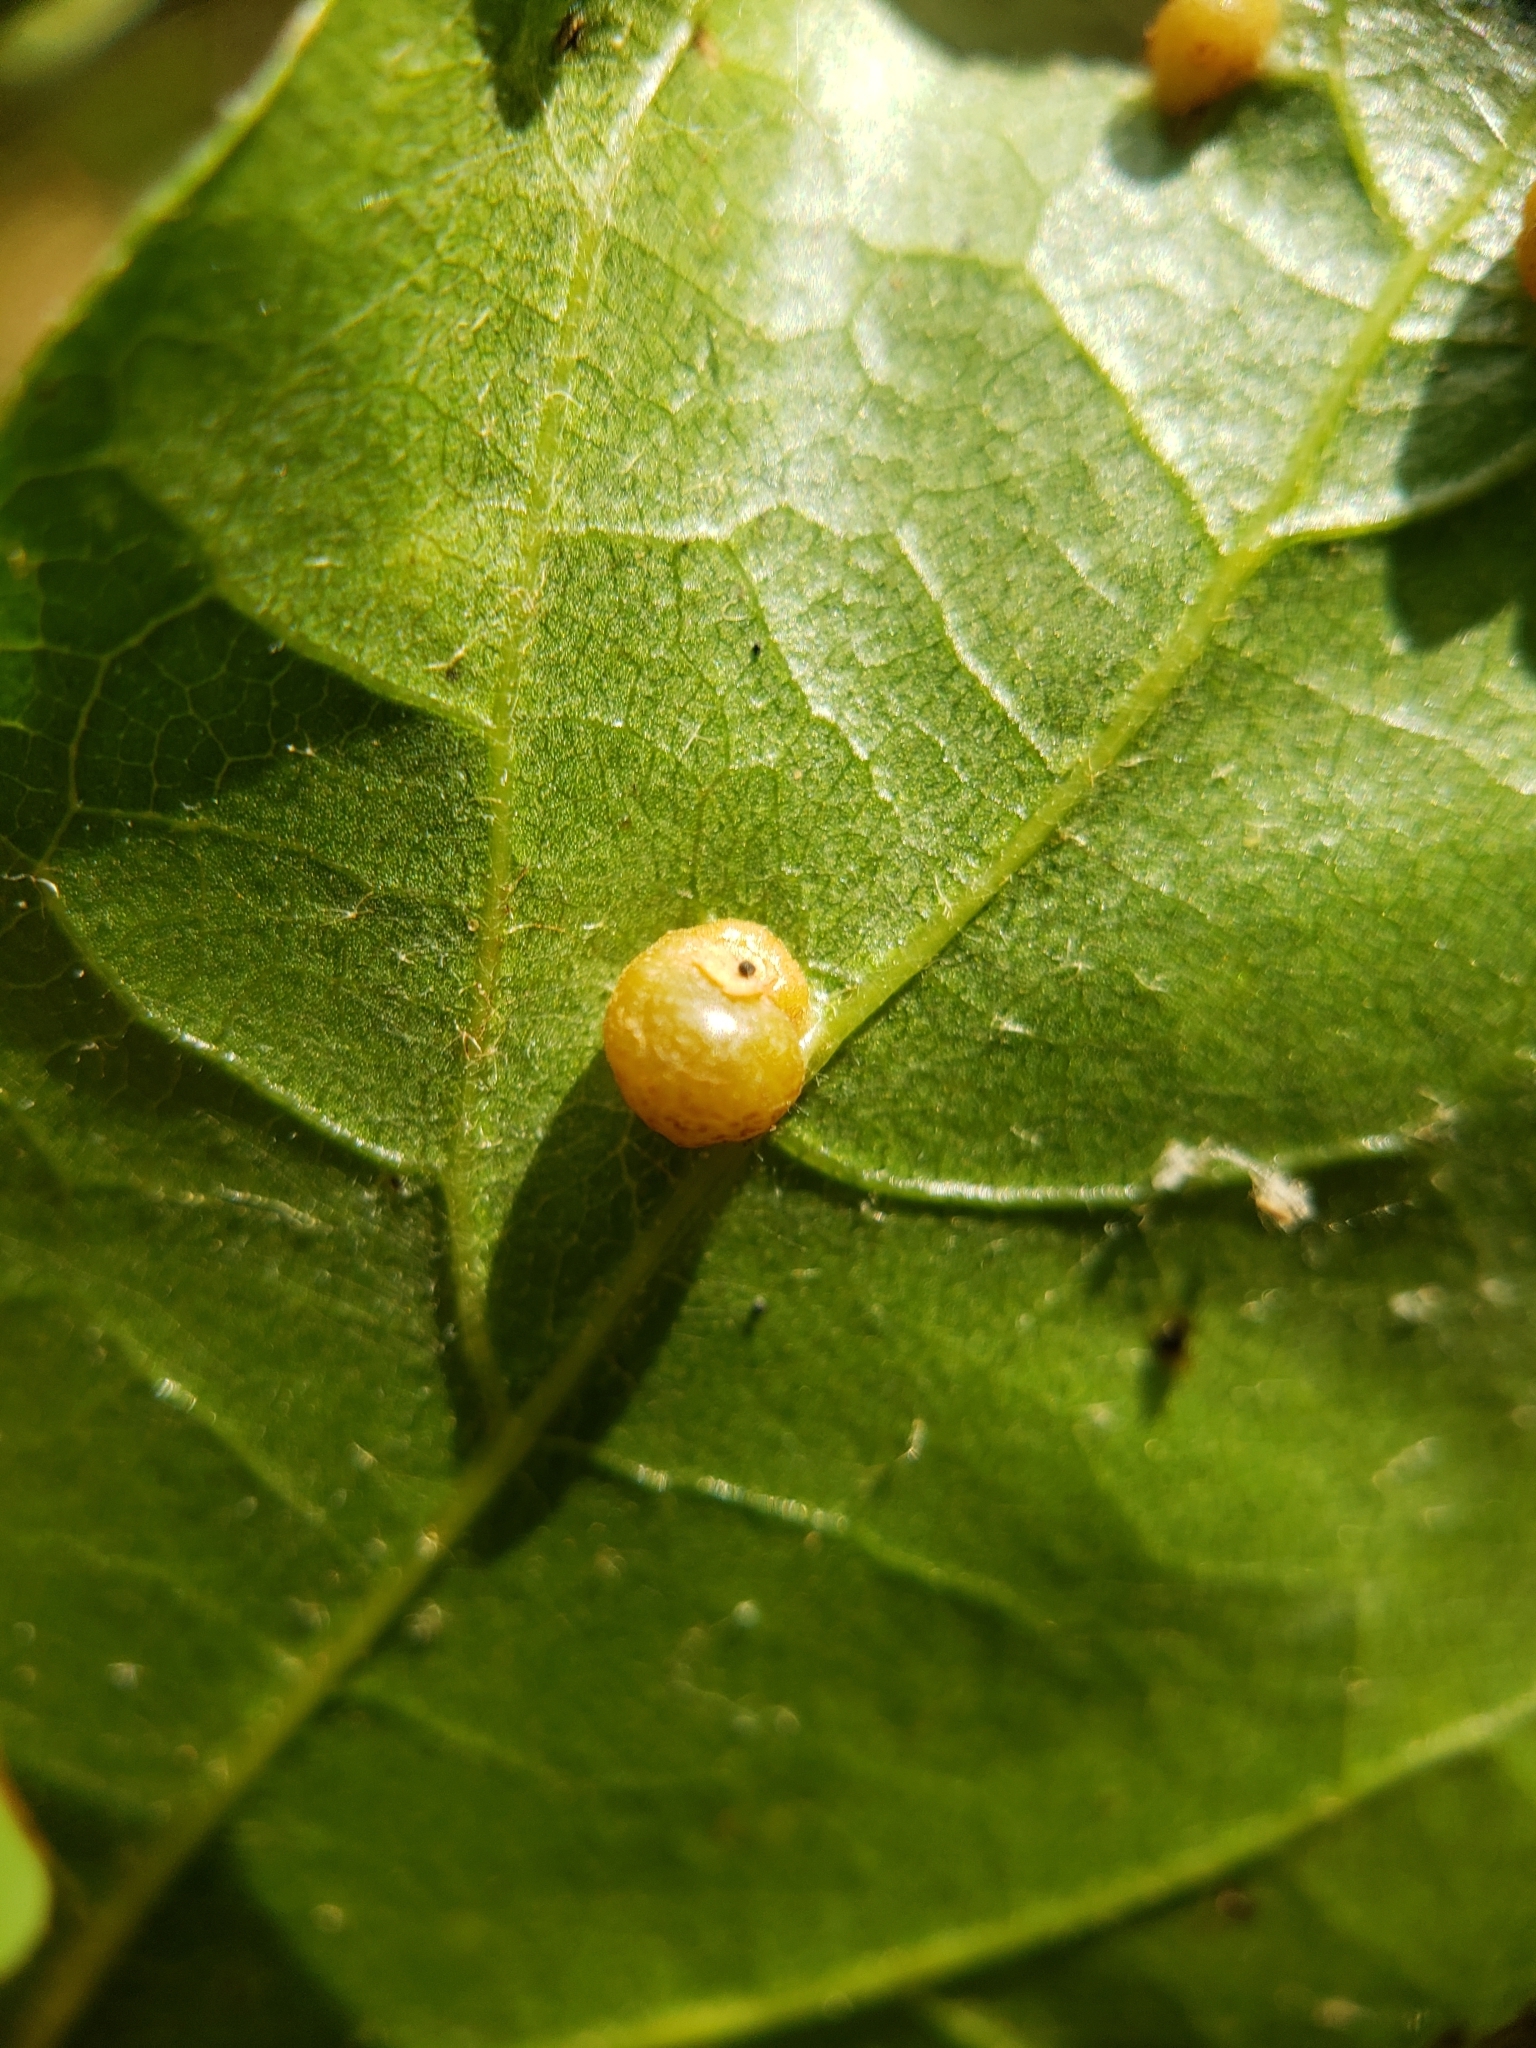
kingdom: Animalia
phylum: Arthropoda
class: Insecta
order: Diptera
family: Cecidomyiidae
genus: Polystepha
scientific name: Polystepha globosa
